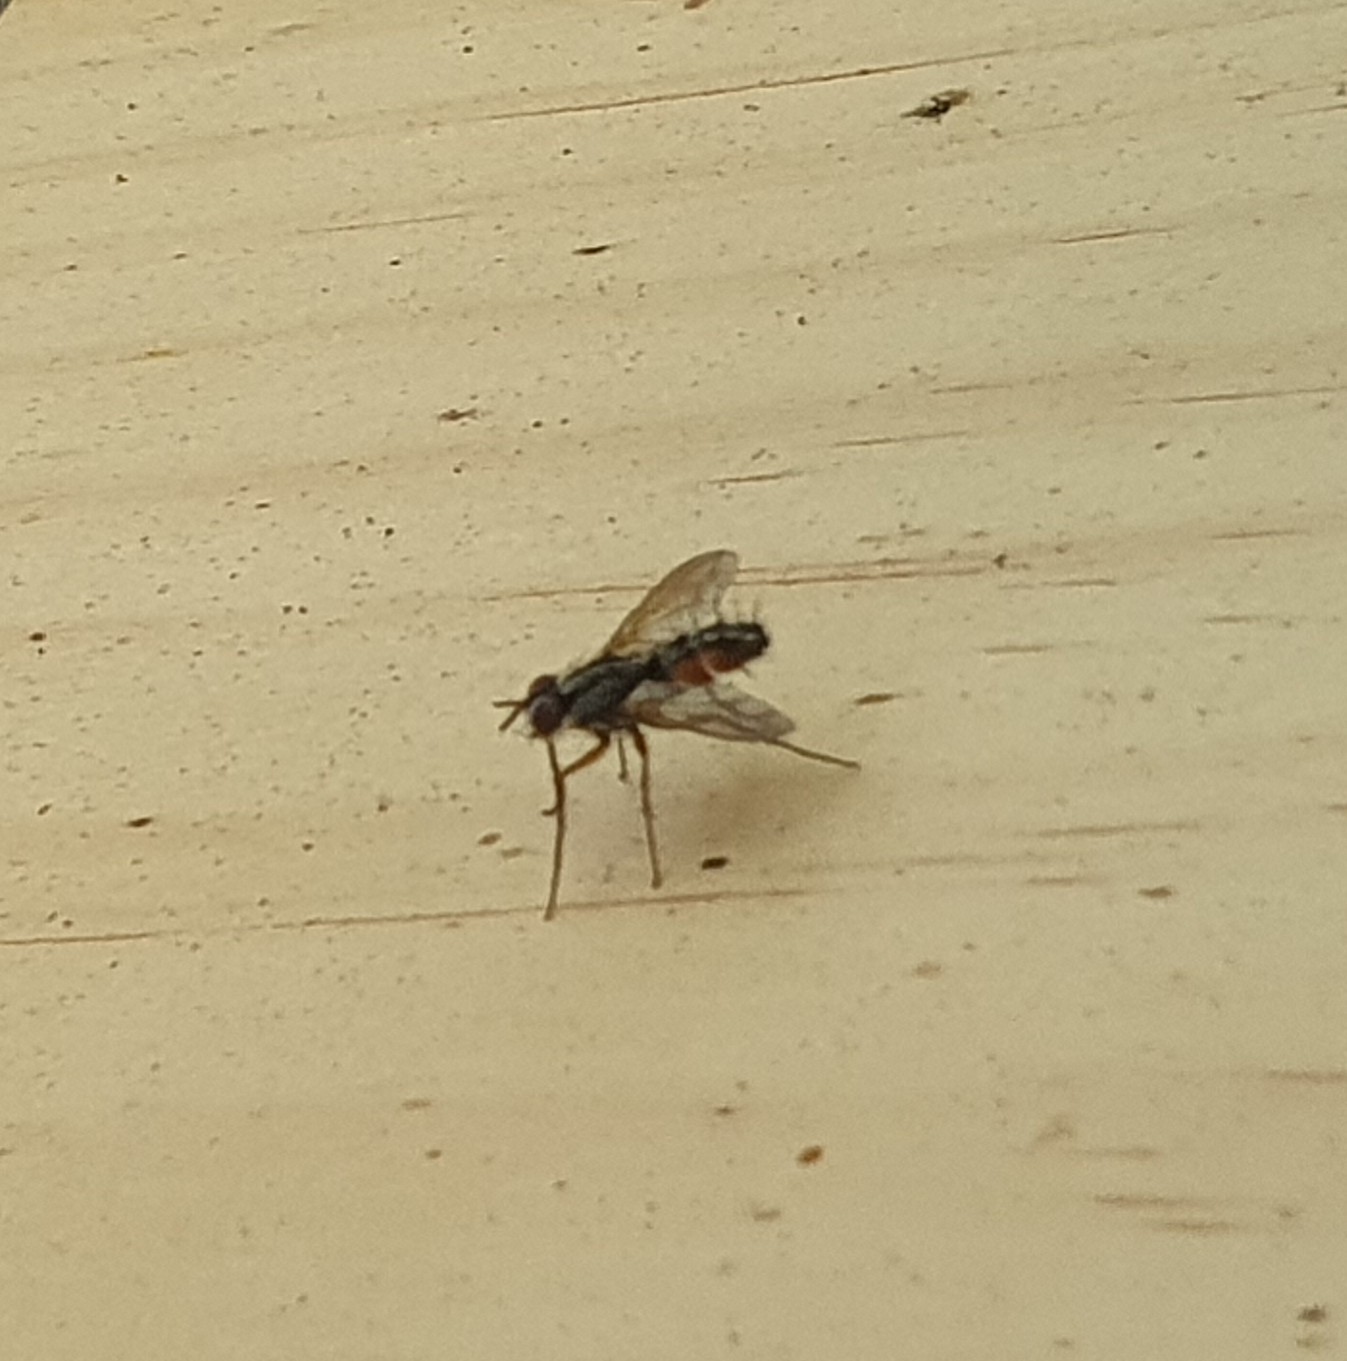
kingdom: Animalia
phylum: Arthropoda
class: Insecta
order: Diptera
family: Tachinidae
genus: Mintho
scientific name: Mintho rufiventris
